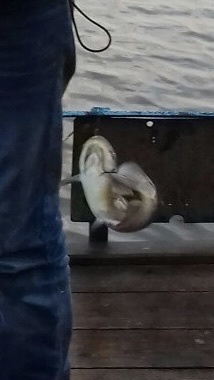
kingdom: Animalia
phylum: Chordata
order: Siluriformes
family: Ictaluridae
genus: Ameiurus
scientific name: Ameiurus nebulosus
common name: Brown bullhead
